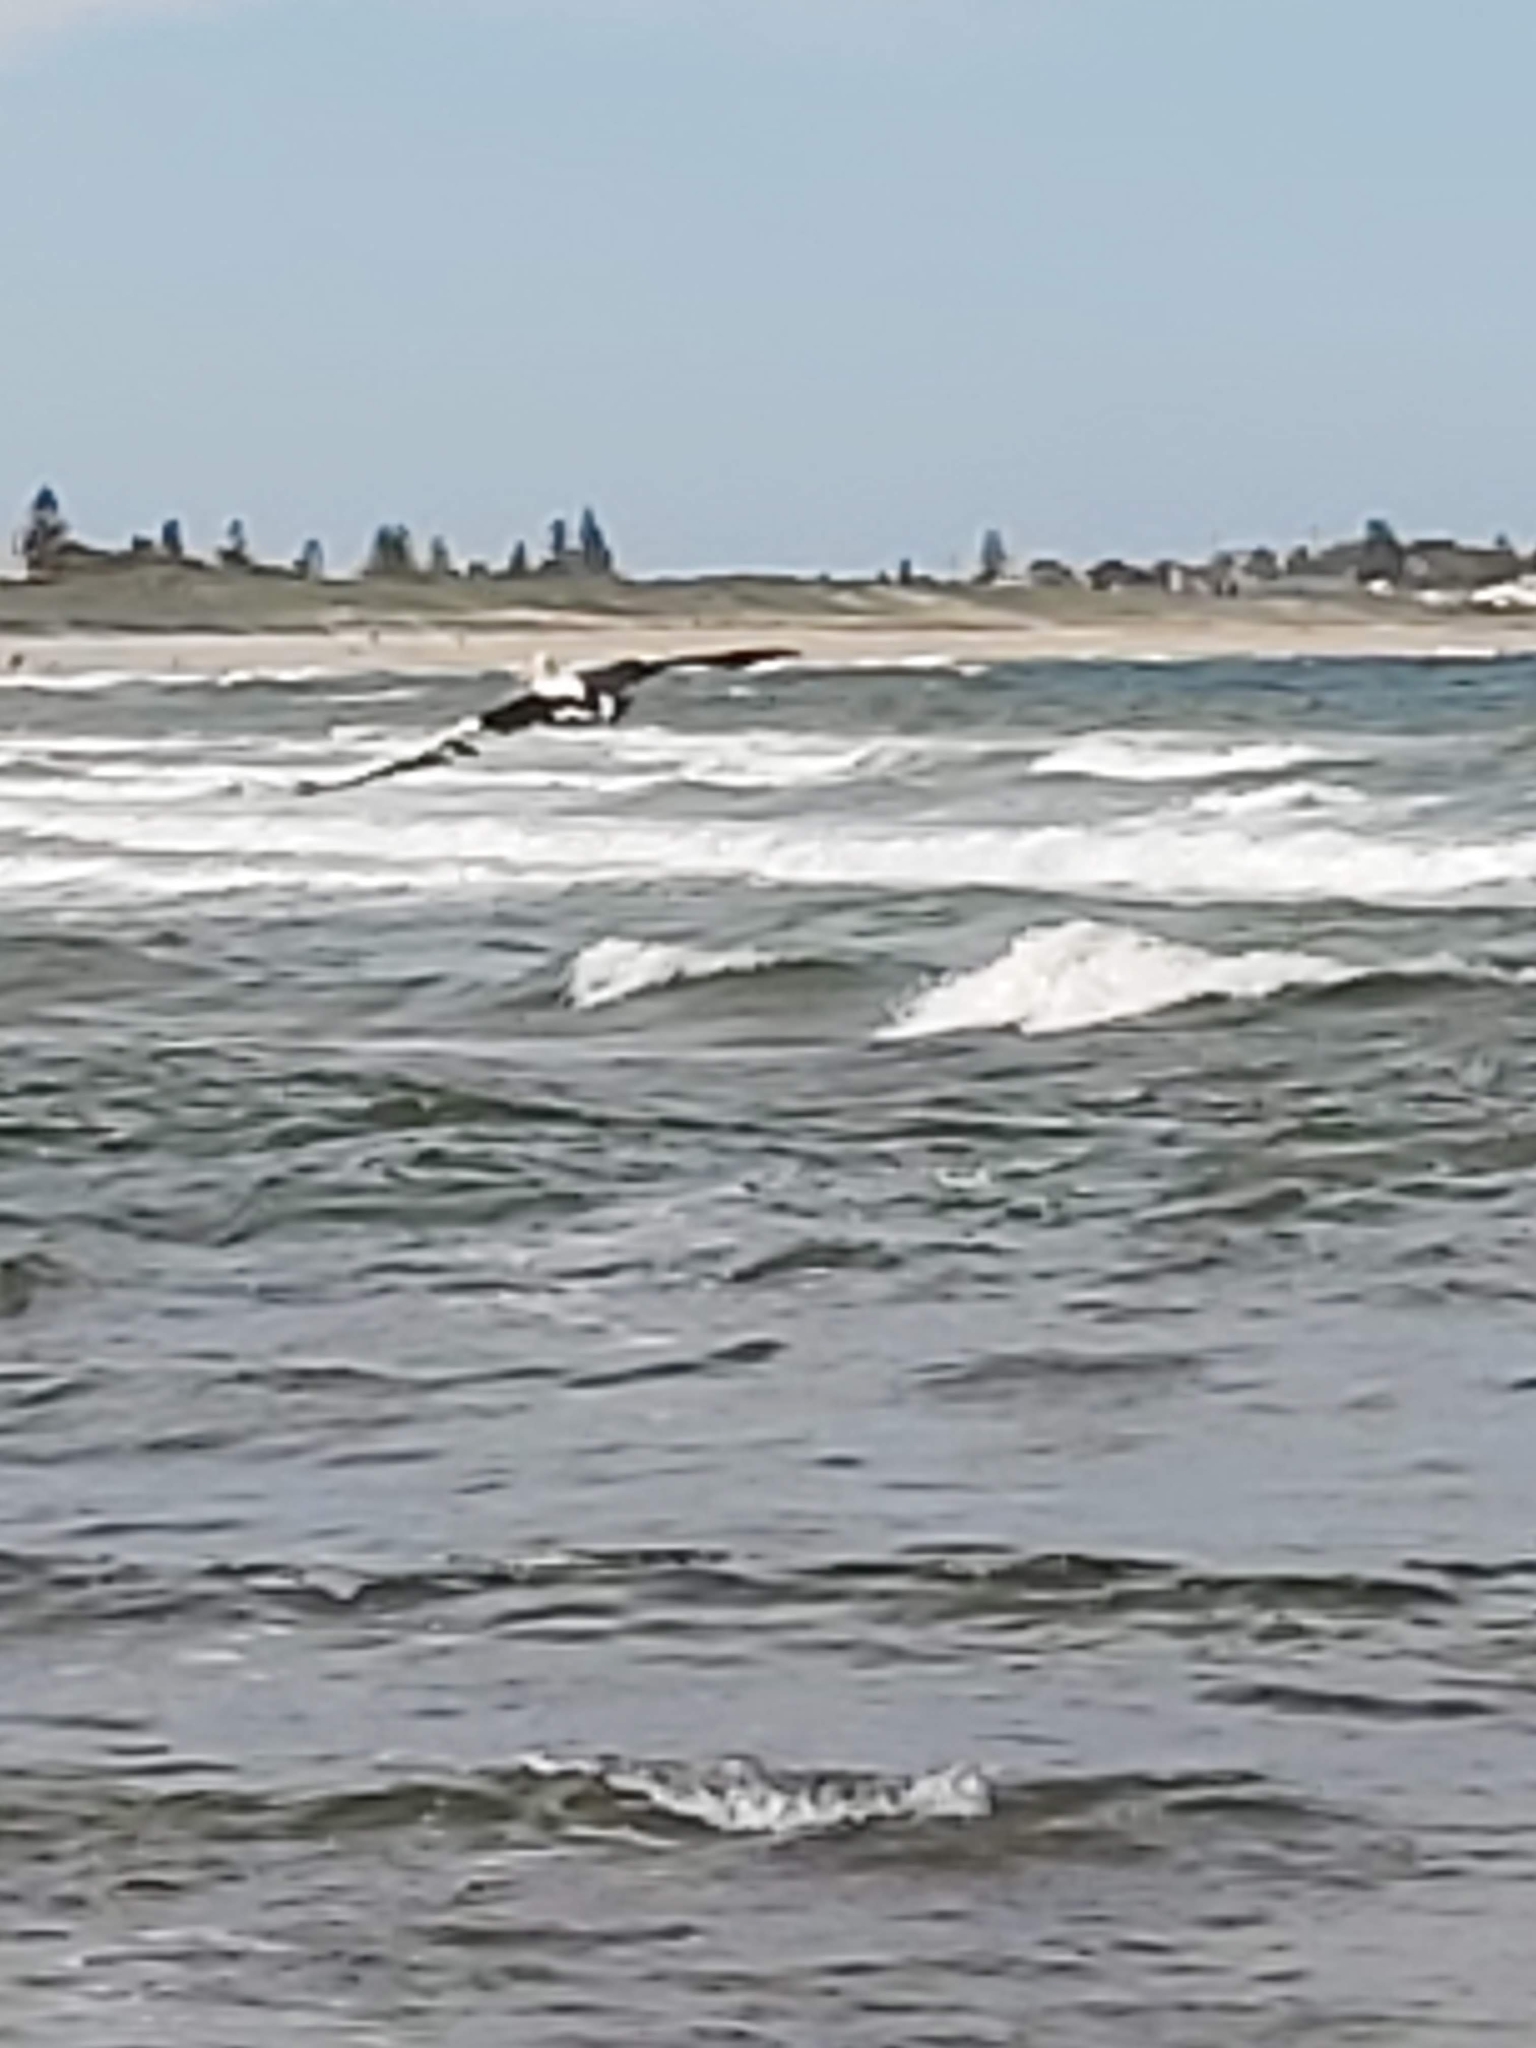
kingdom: Animalia
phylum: Chordata
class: Aves
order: Pelecaniformes
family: Pelecanidae
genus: Pelecanus
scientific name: Pelecanus conspicillatus
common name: Australian pelican
